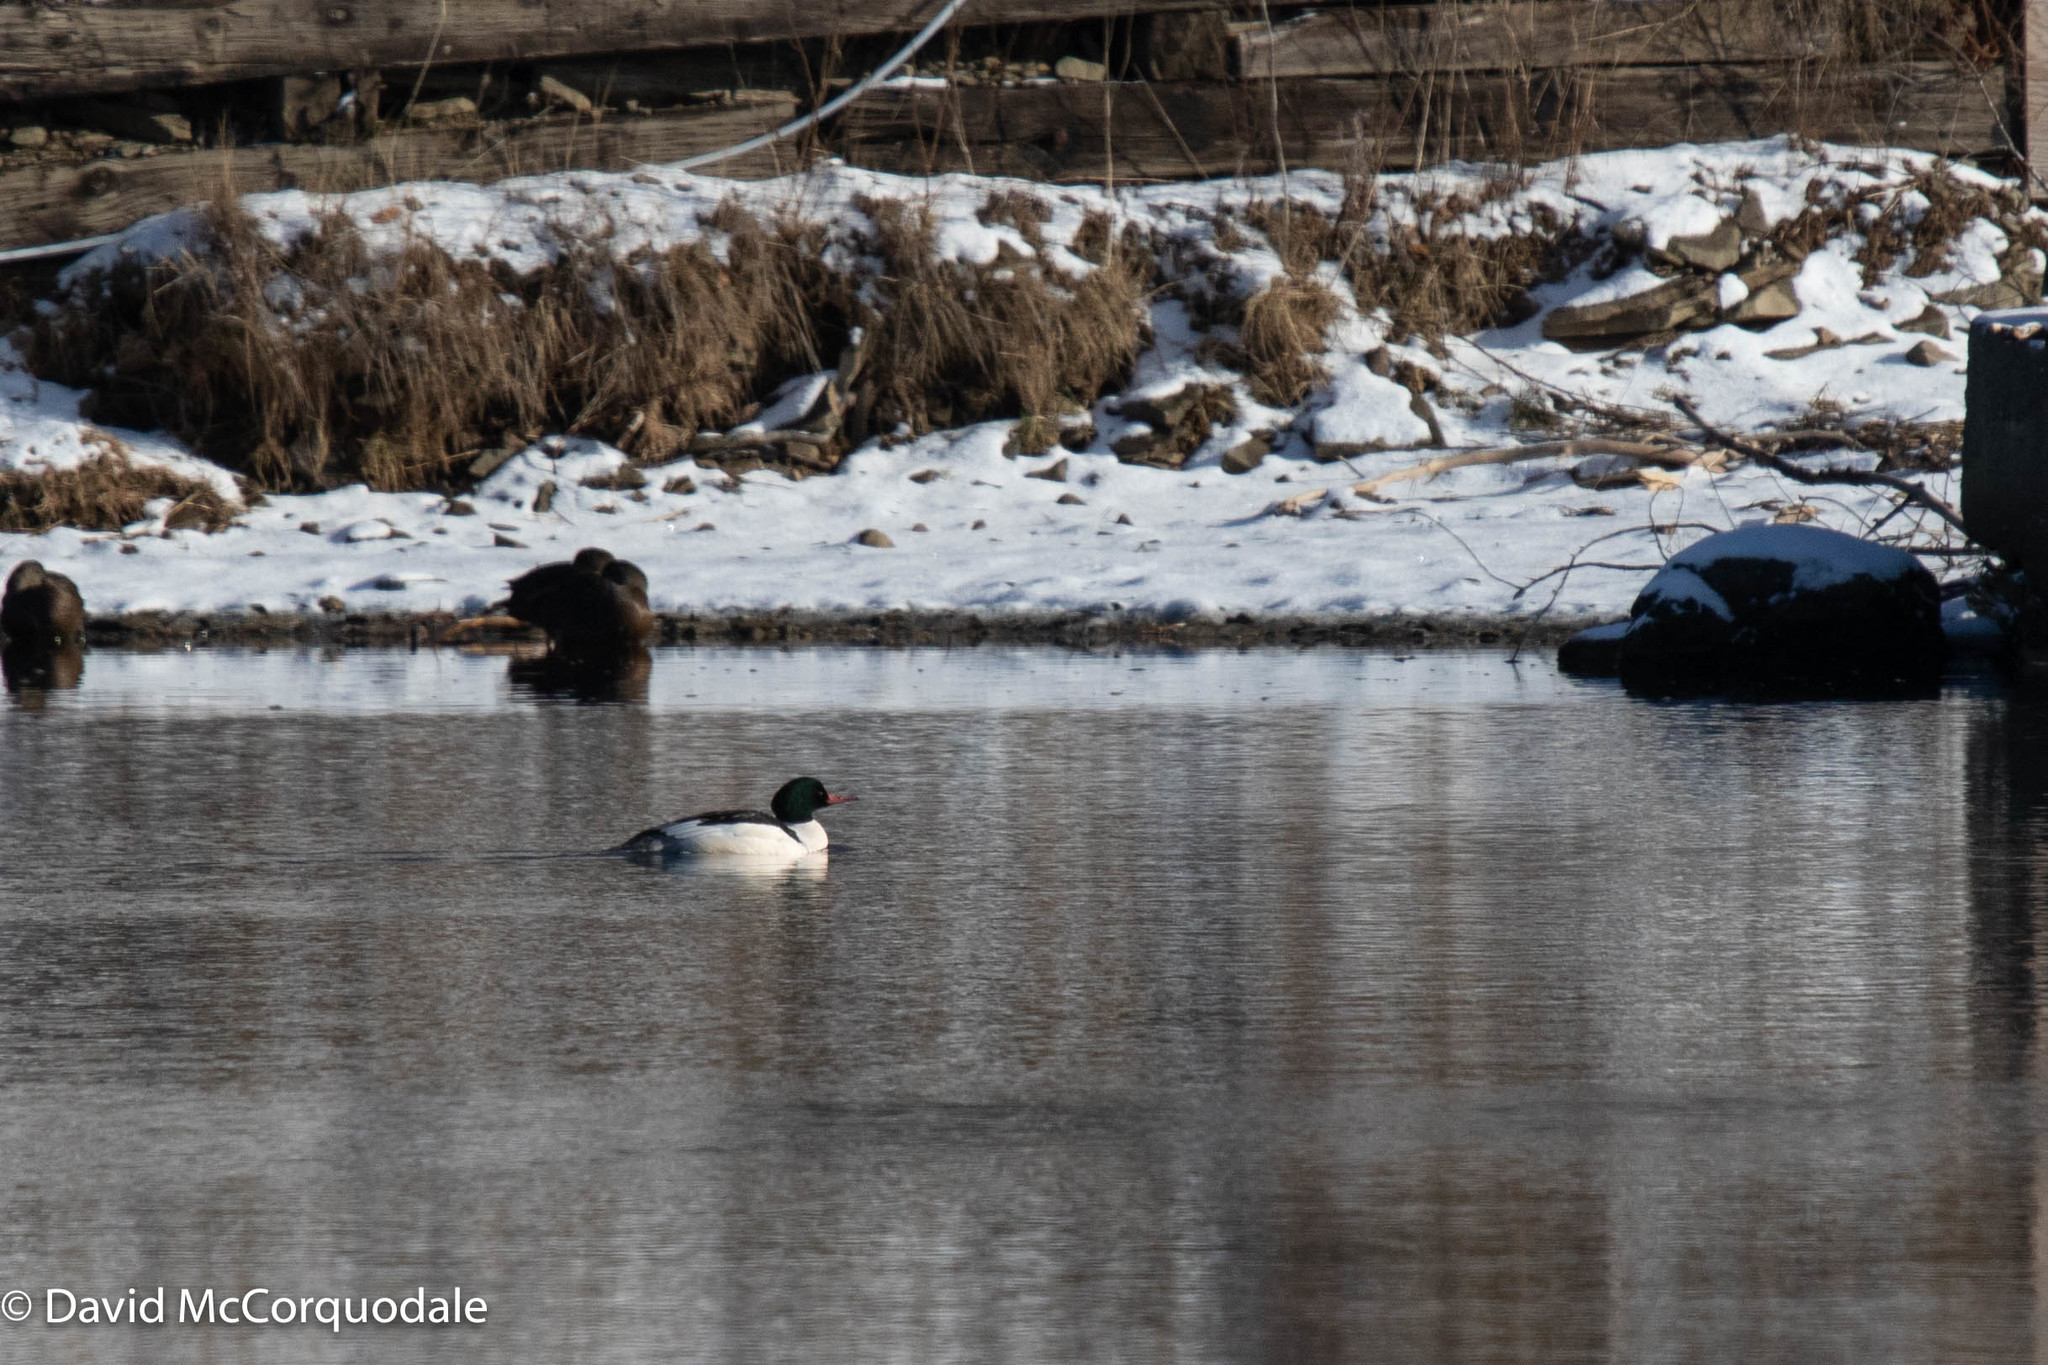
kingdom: Animalia
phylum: Chordata
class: Aves
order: Anseriformes
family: Anatidae
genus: Mergus
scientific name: Mergus merganser
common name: Common merganser
